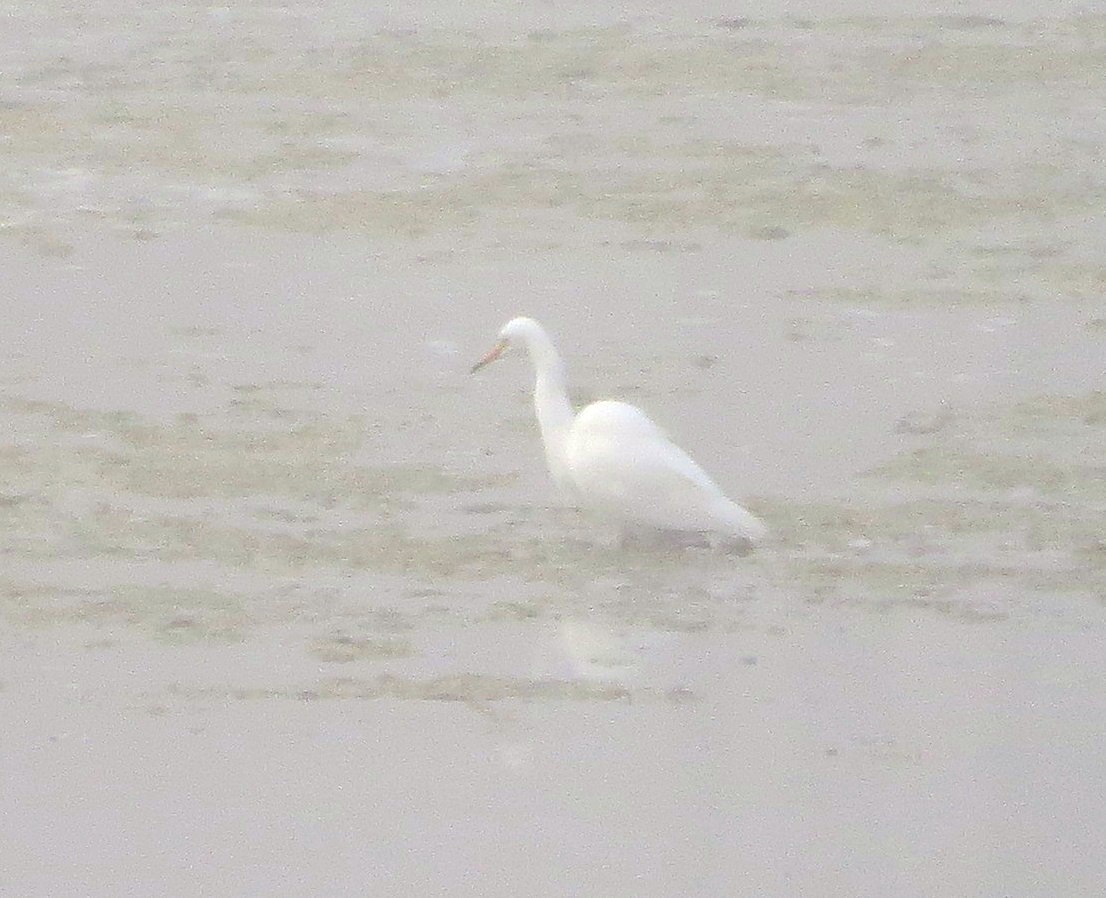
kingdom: Animalia
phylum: Chordata
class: Aves
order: Pelecaniformes
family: Ardeidae
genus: Egretta
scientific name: Egretta intermedia
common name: Intermediate egret
